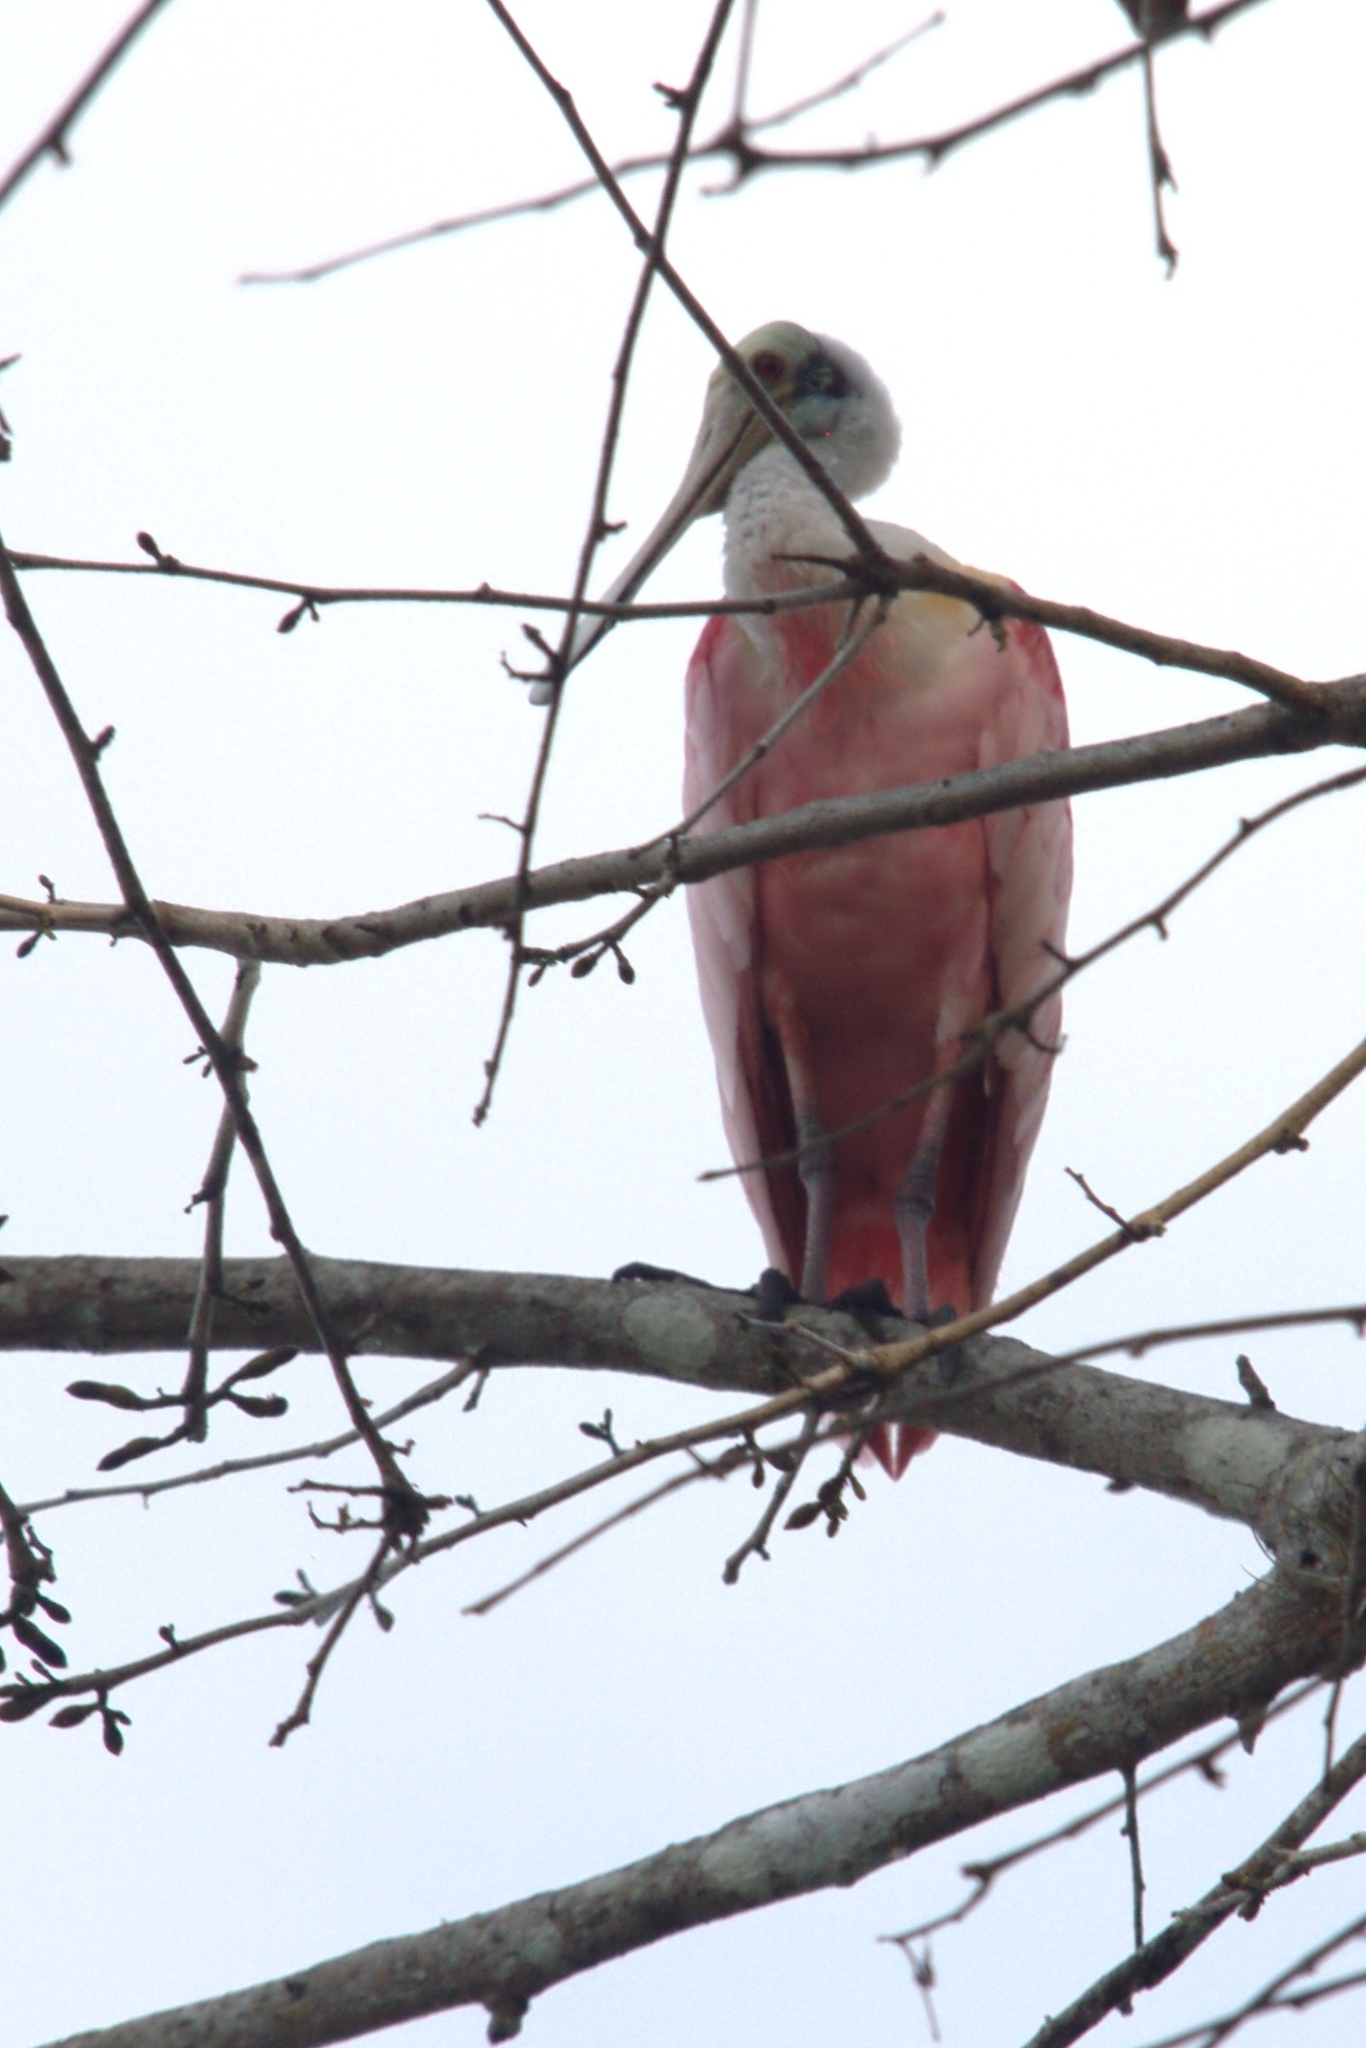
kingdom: Animalia
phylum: Chordata
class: Aves
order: Pelecaniformes
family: Threskiornithidae
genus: Platalea
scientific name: Platalea ajaja
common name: Roseate spoonbill
